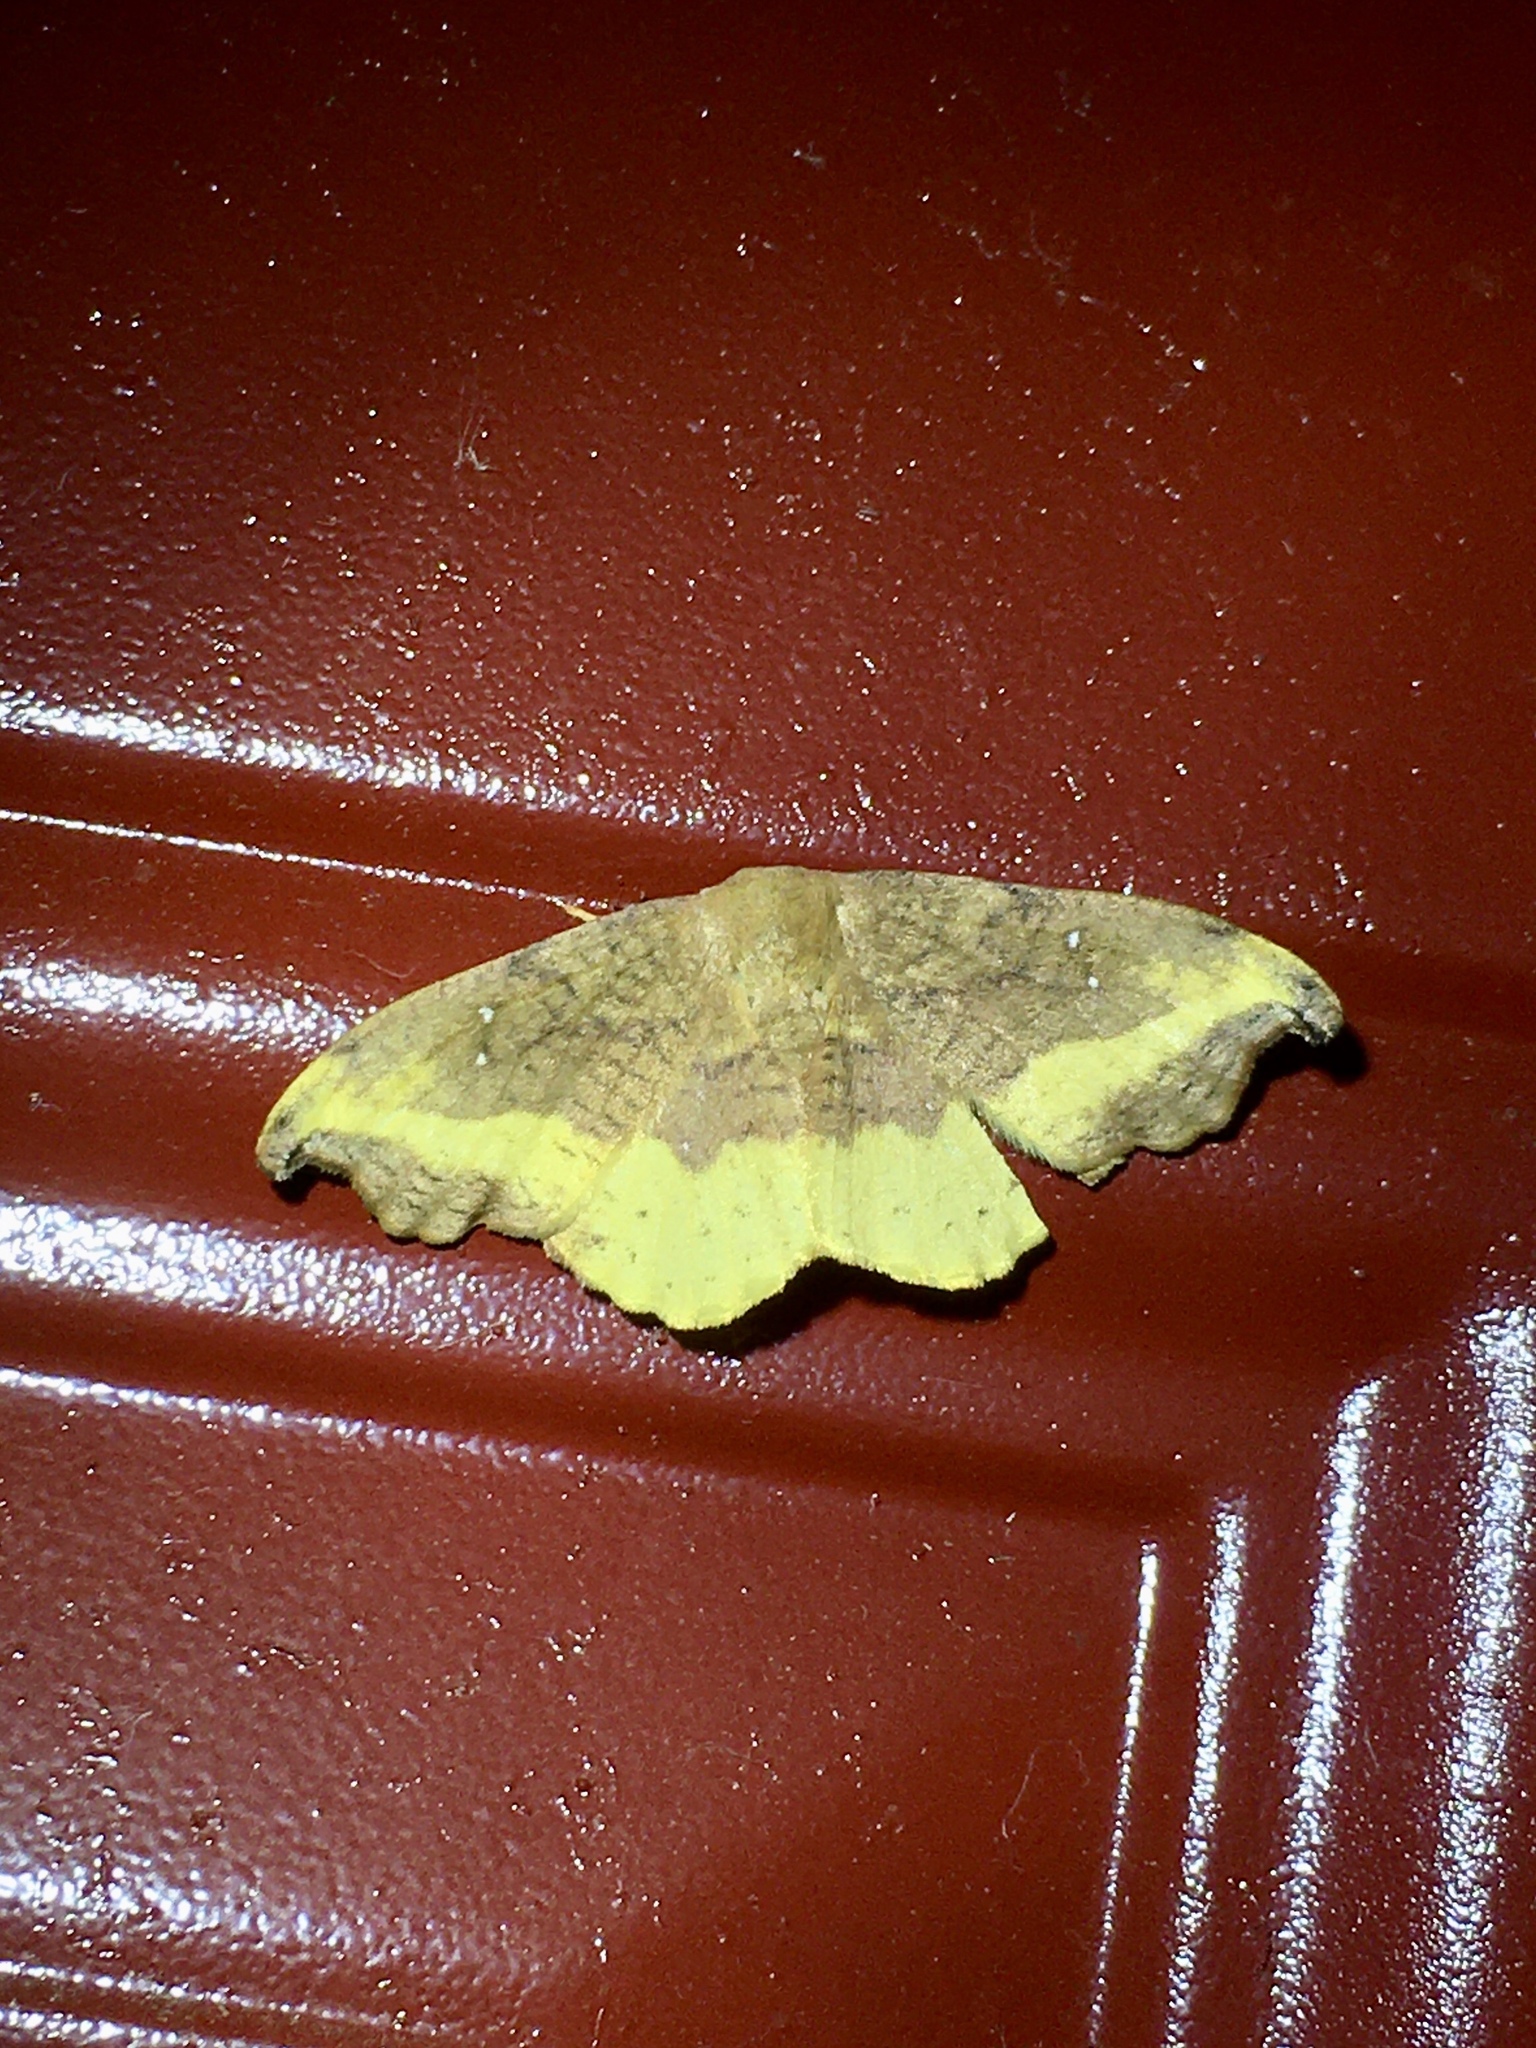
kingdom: Animalia
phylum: Arthropoda
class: Insecta
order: Lepidoptera
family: Drepanidae
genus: Oreta
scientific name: Oreta rosea
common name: Rose hooktip
